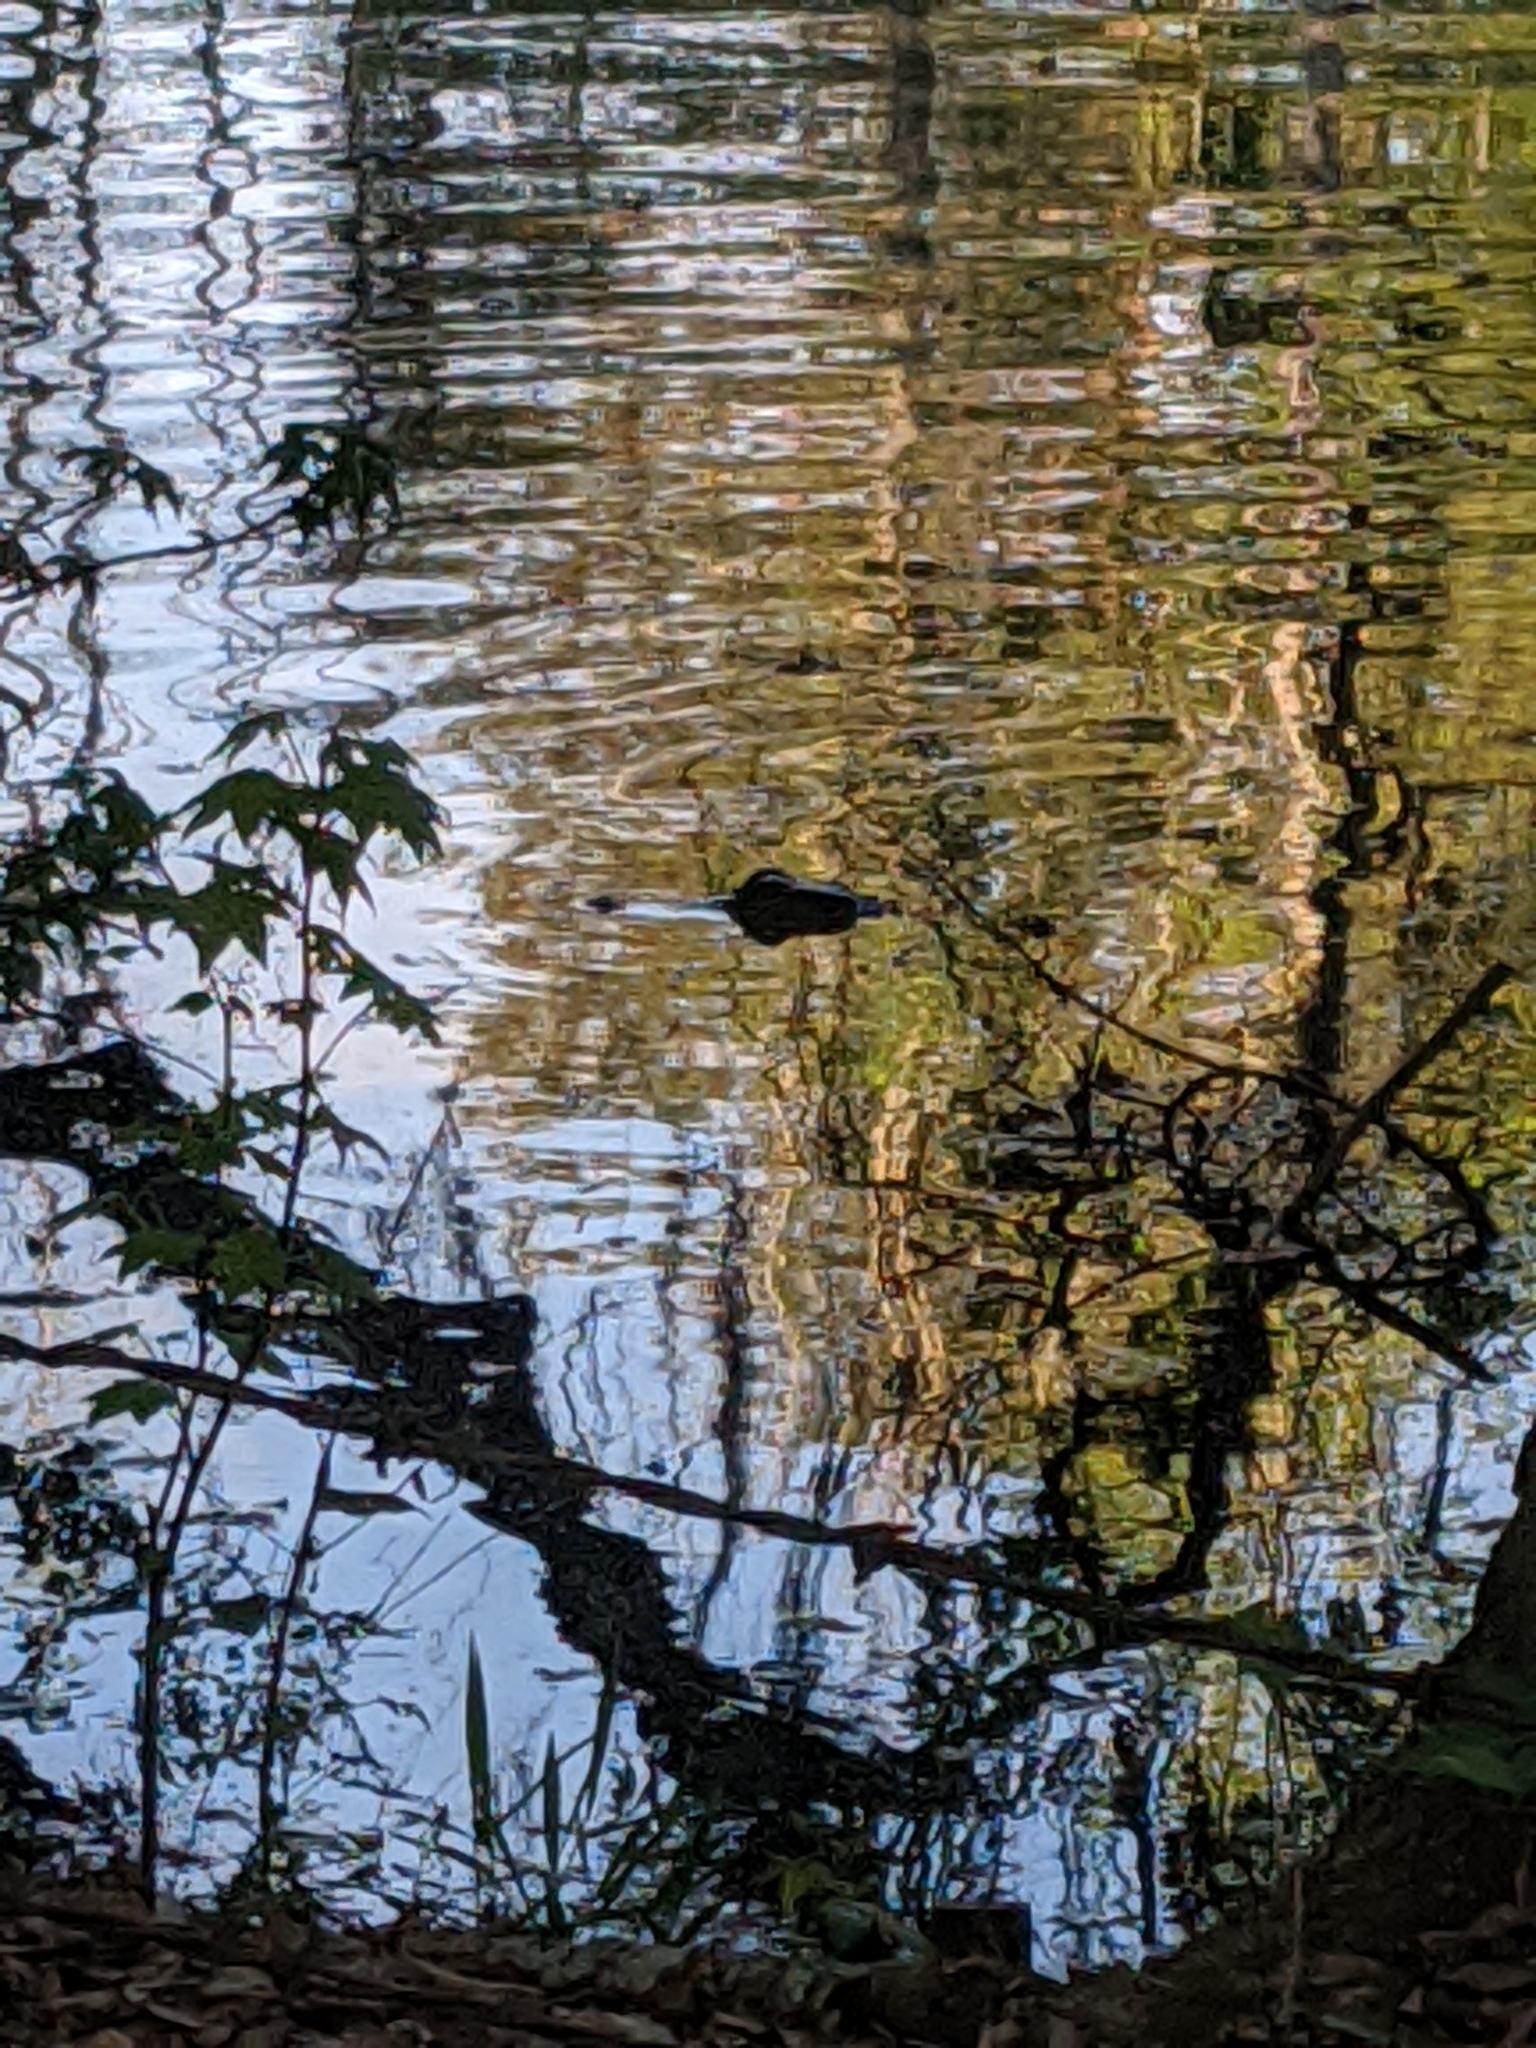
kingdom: Animalia
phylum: Chordata
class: Crocodylia
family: Alligatoridae
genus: Alligator
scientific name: Alligator mississippiensis
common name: American alligator
